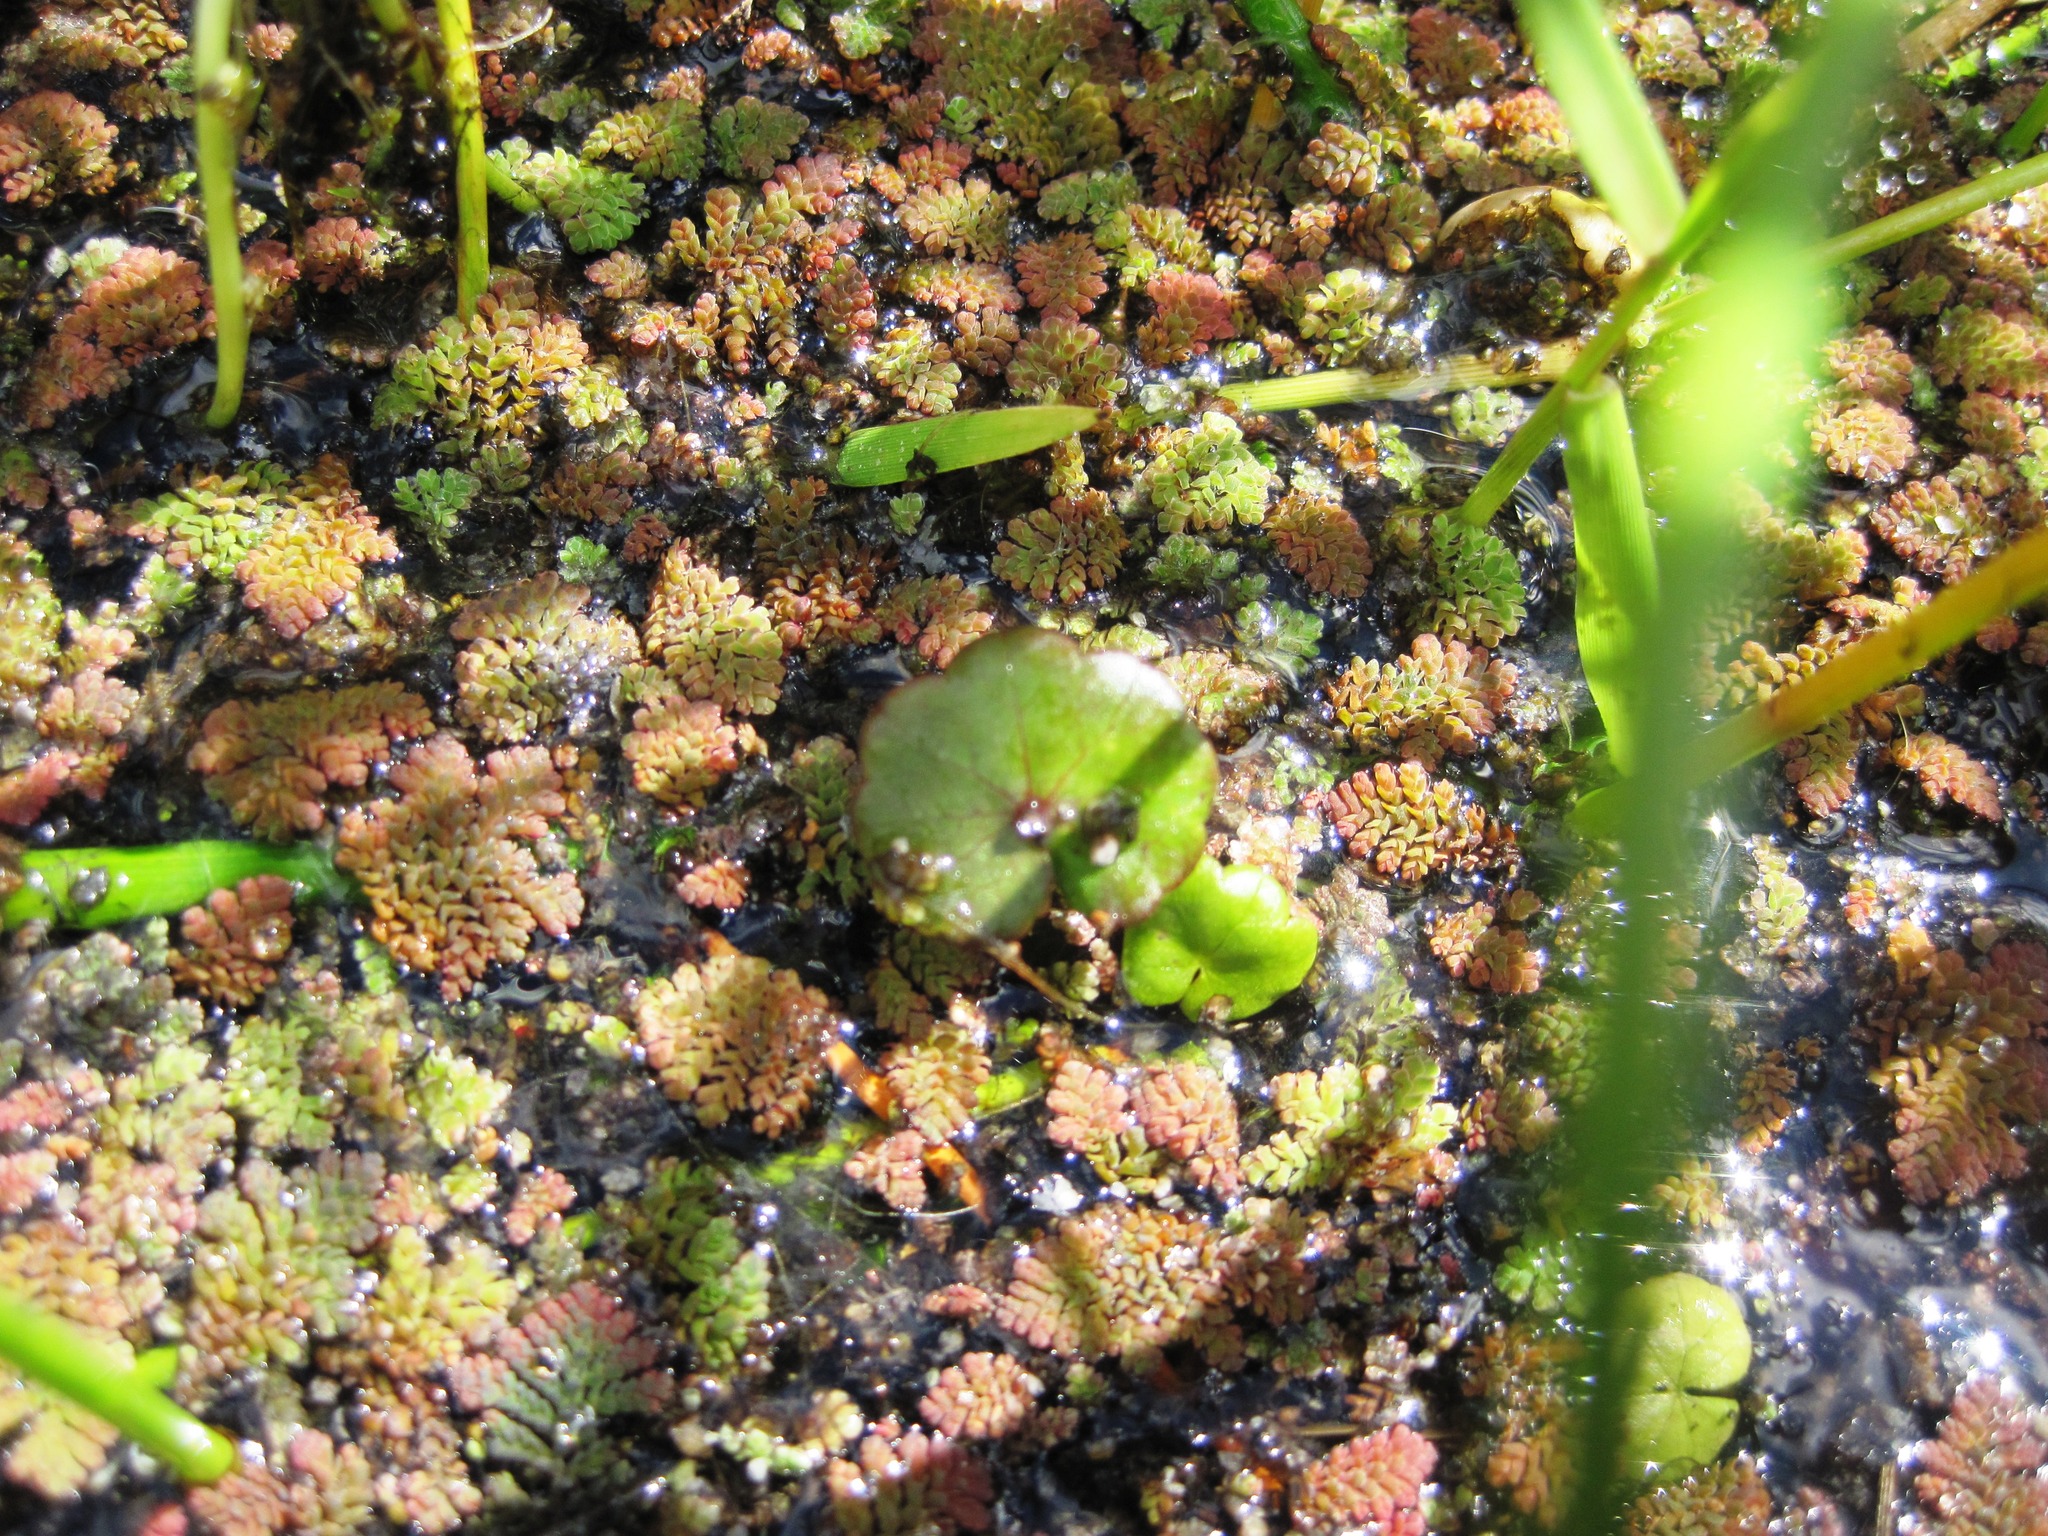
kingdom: Plantae
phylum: Tracheophyta
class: Magnoliopsida
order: Apiales
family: Araliaceae
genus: Hydrocotyle
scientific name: Hydrocotyle pterocarpa
